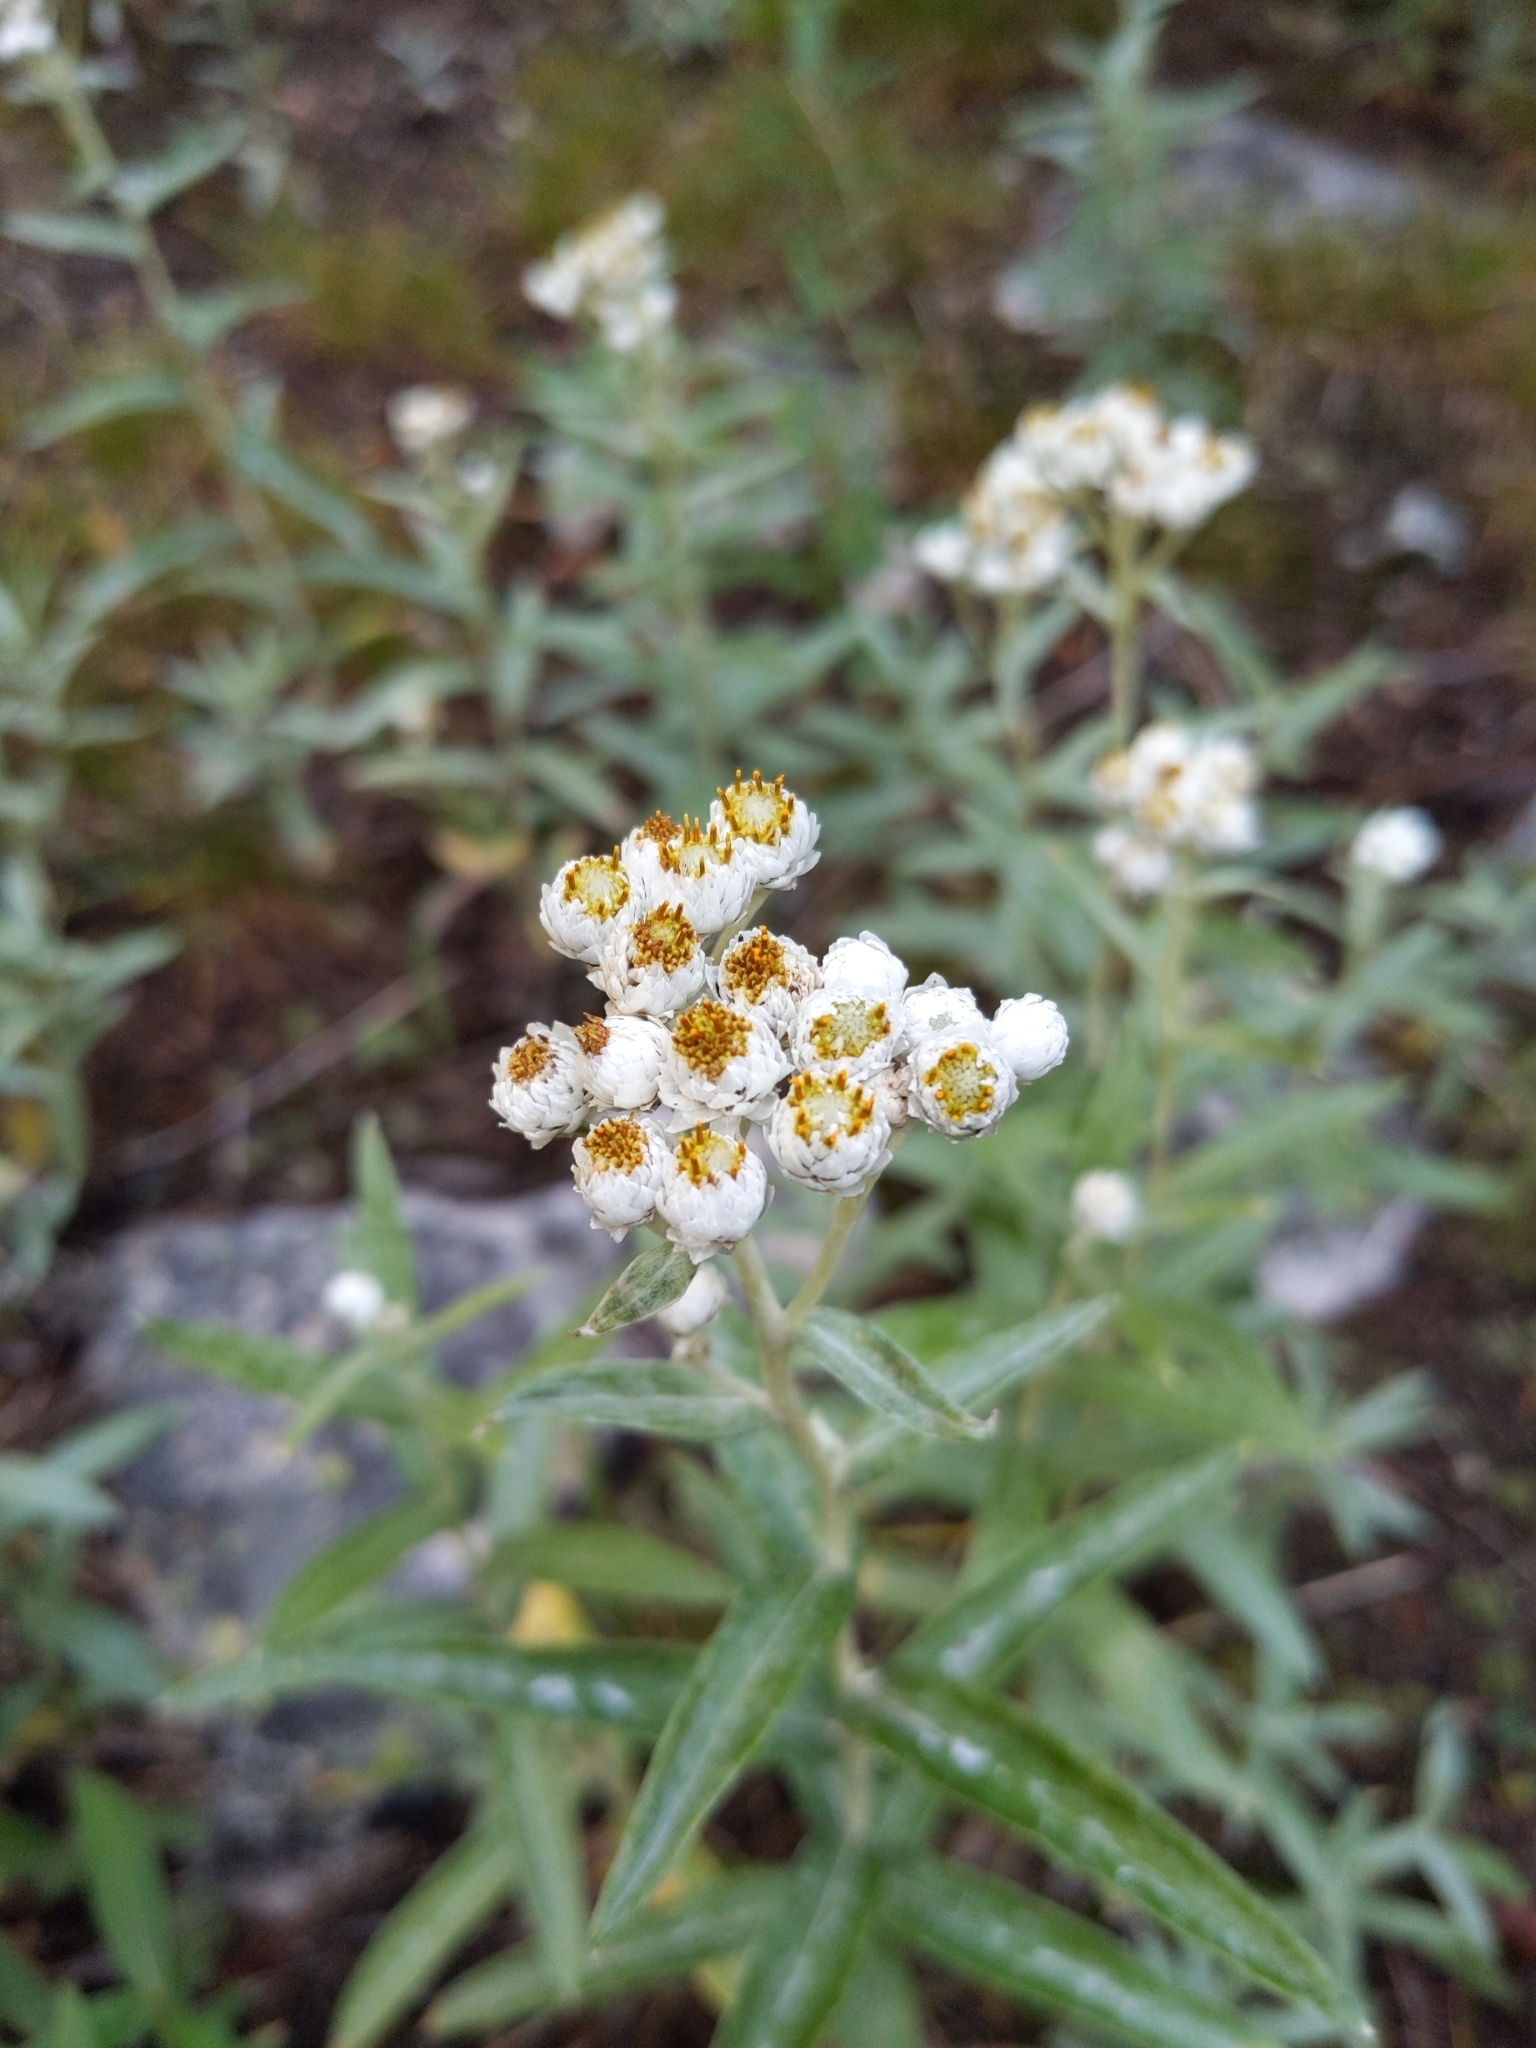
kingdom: Plantae
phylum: Tracheophyta
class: Magnoliopsida
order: Asterales
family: Asteraceae
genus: Anaphalis
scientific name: Anaphalis margaritacea
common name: Pearly everlasting
